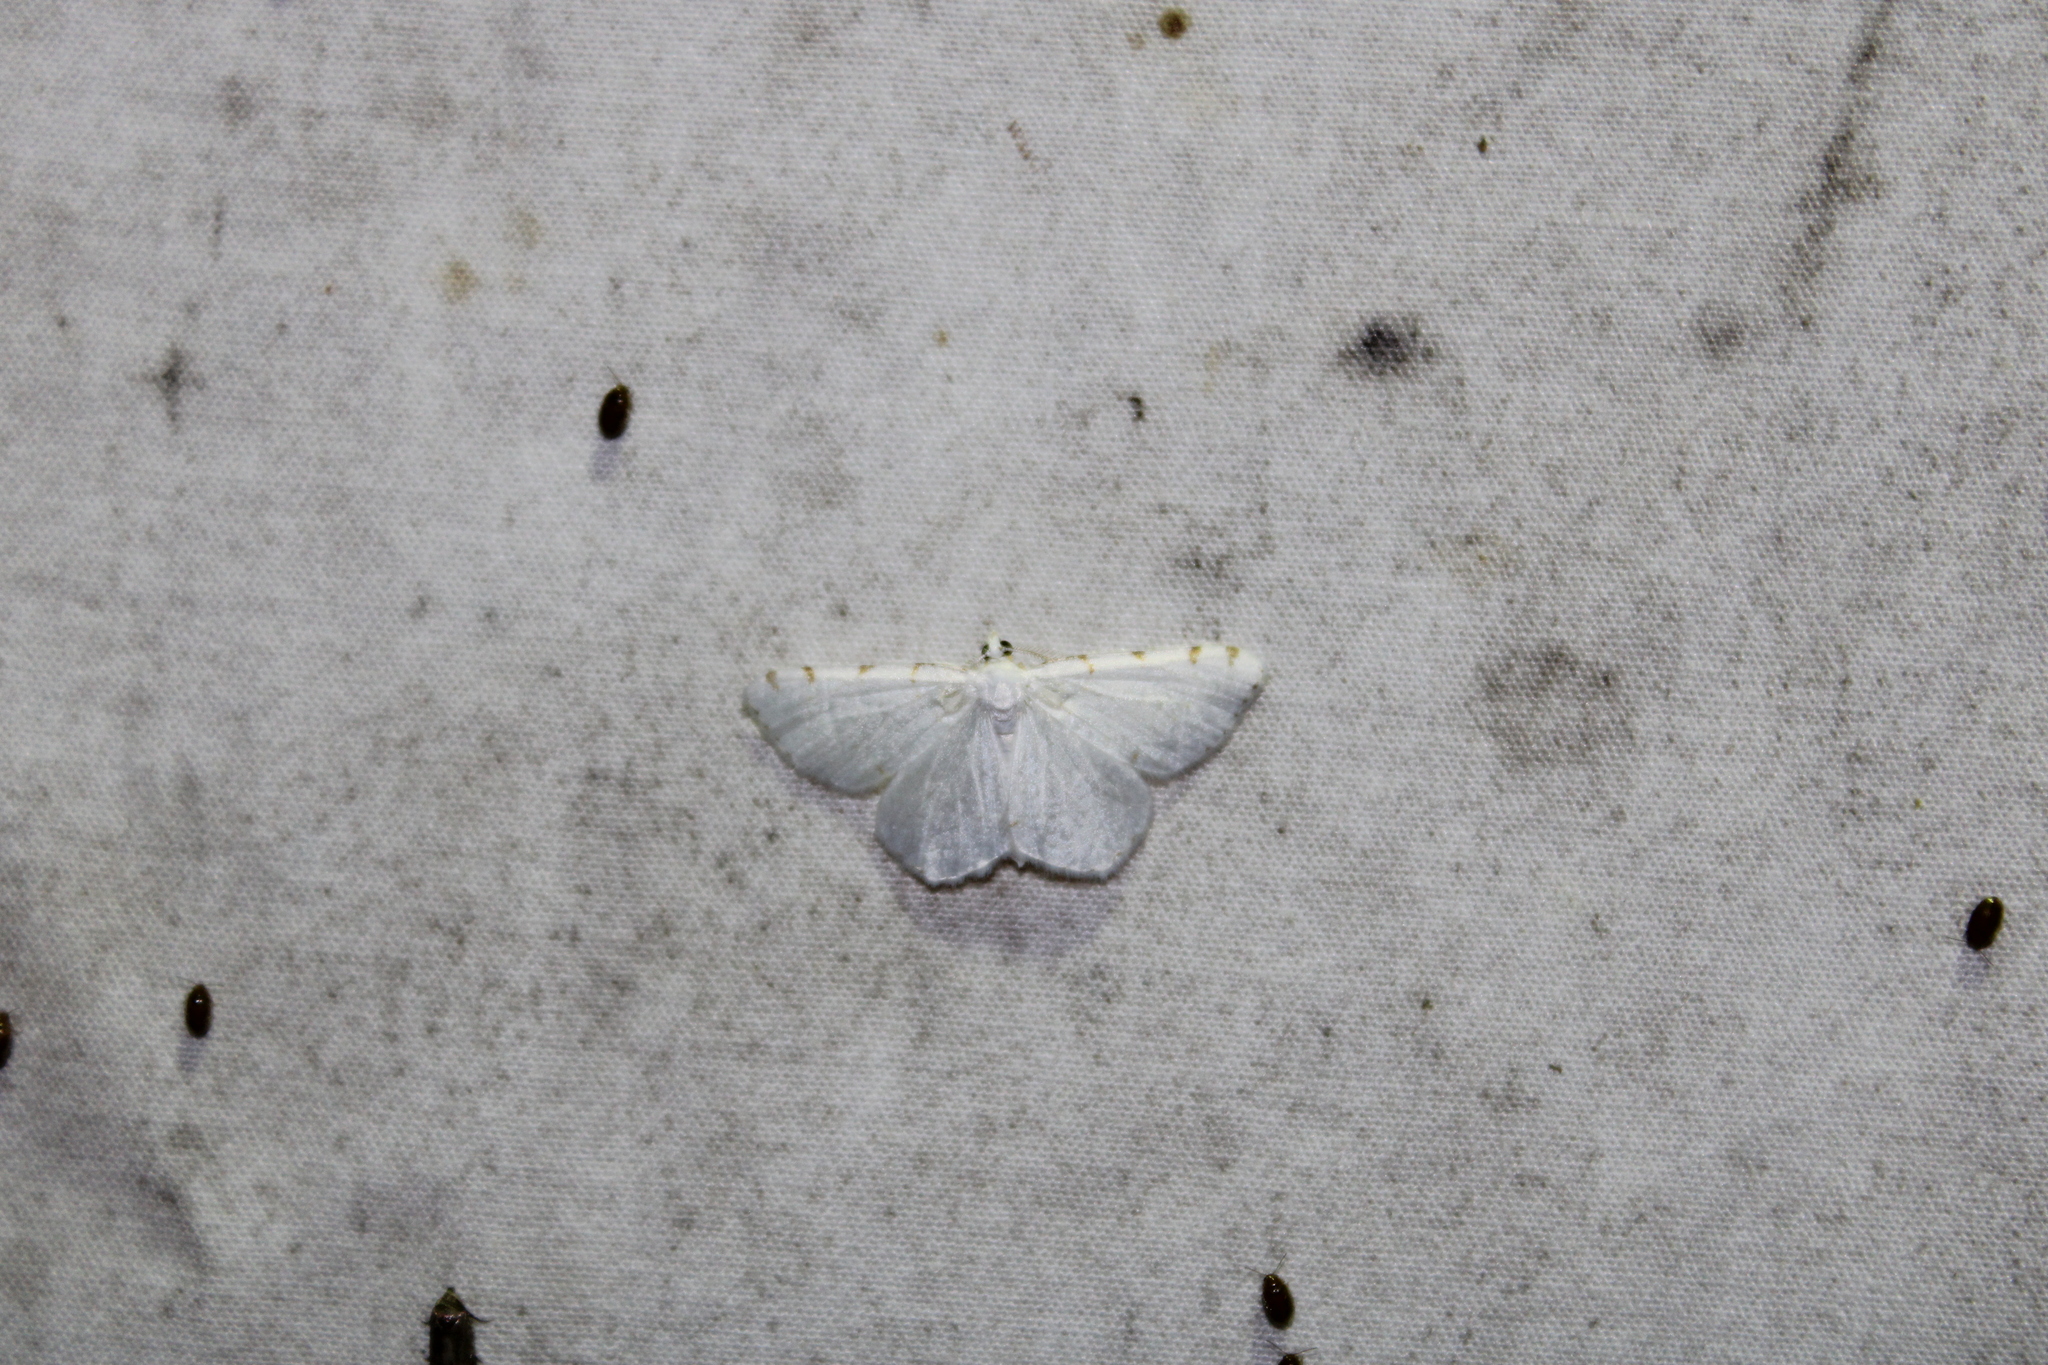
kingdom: Animalia
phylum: Arthropoda
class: Insecta
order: Lepidoptera
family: Geometridae
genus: Macaria
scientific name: Macaria pustularia
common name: Lesser maple spanworm moth
